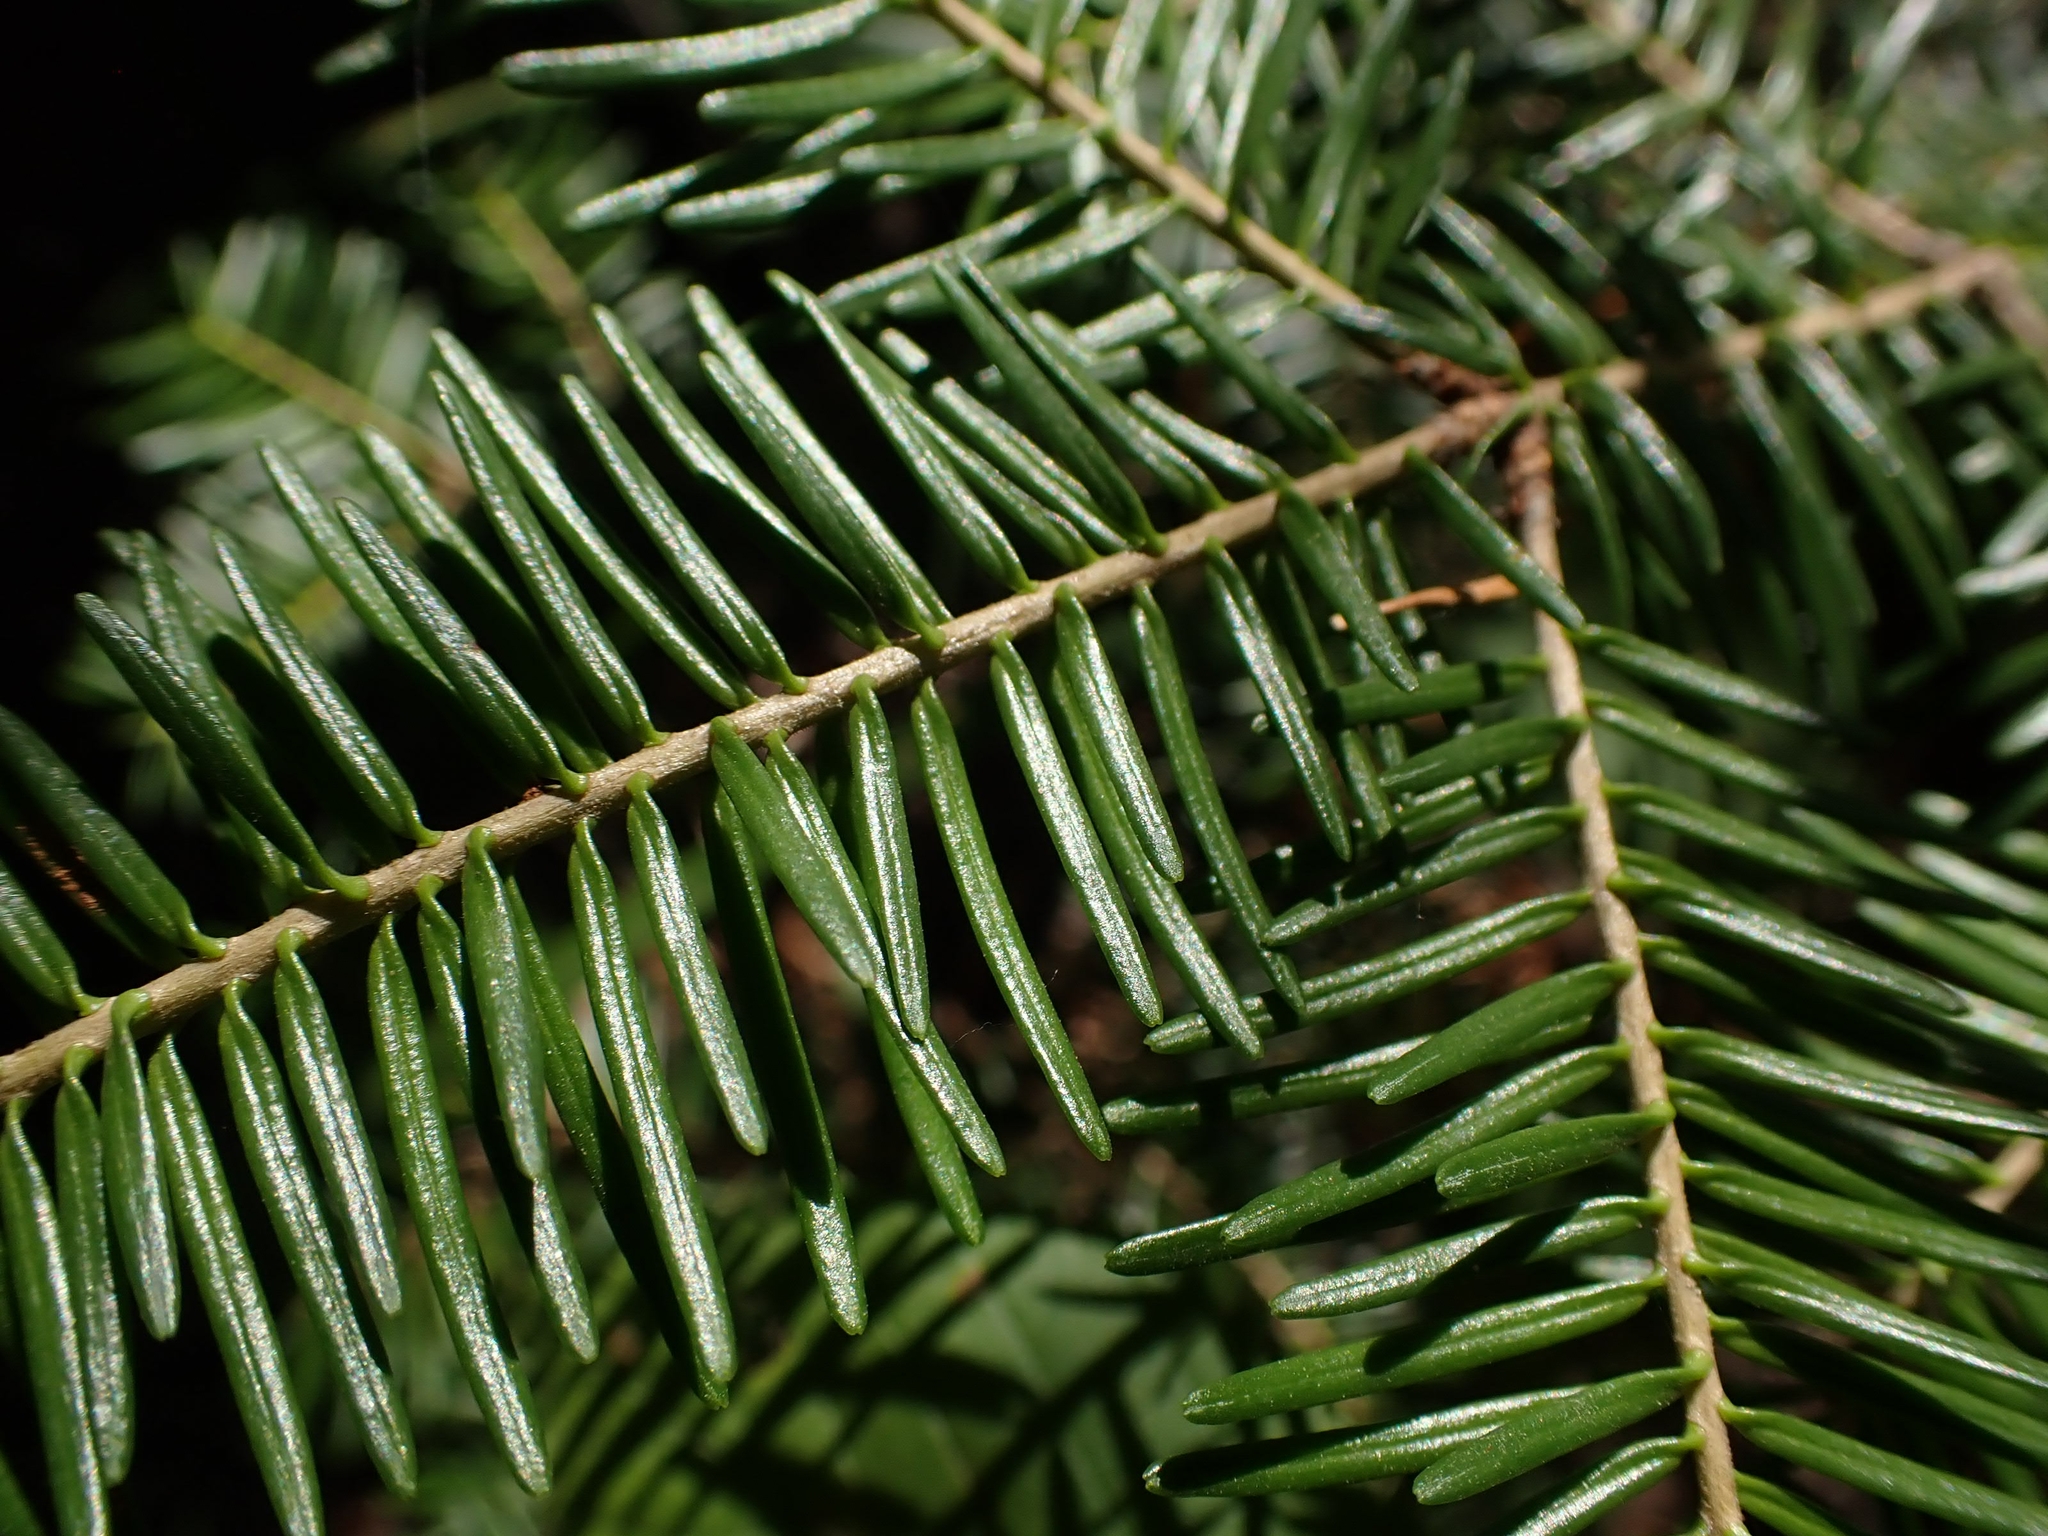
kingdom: Plantae
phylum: Tracheophyta
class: Pinopsida
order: Pinales
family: Pinaceae
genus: Abies
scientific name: Abies balsamea
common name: Balsam fir
